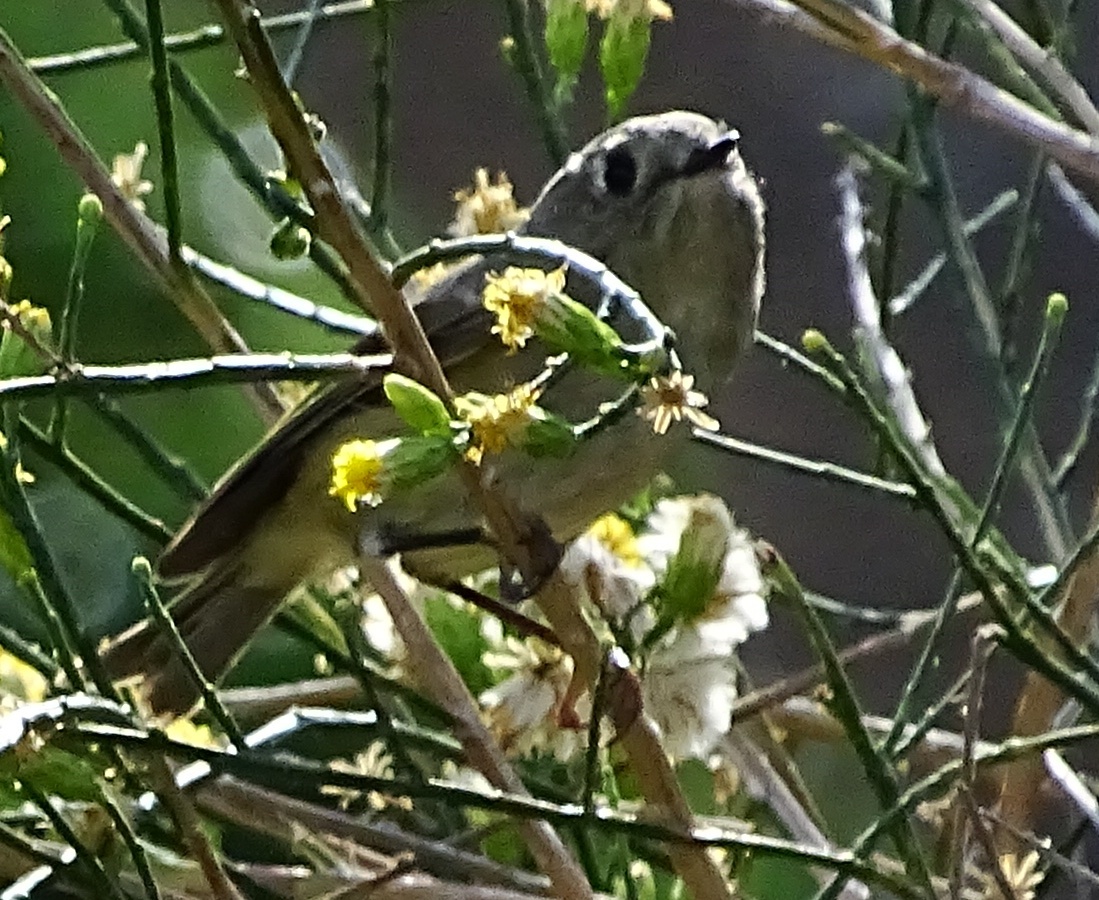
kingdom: Animalia
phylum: Chordata
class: Aves
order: Passeriformes
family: Regulidae
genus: Regulus
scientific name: Regulus calendula
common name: Ruby-crowned kinglet
